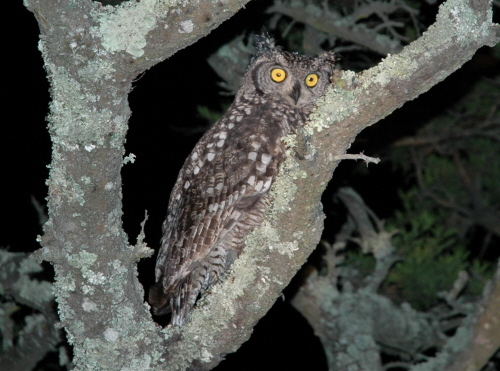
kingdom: Animalia
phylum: Chordata
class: Aves
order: Strigiformes
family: Strigidae
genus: Bubo
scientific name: Bubo africanus
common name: Spotted eagle-owl
